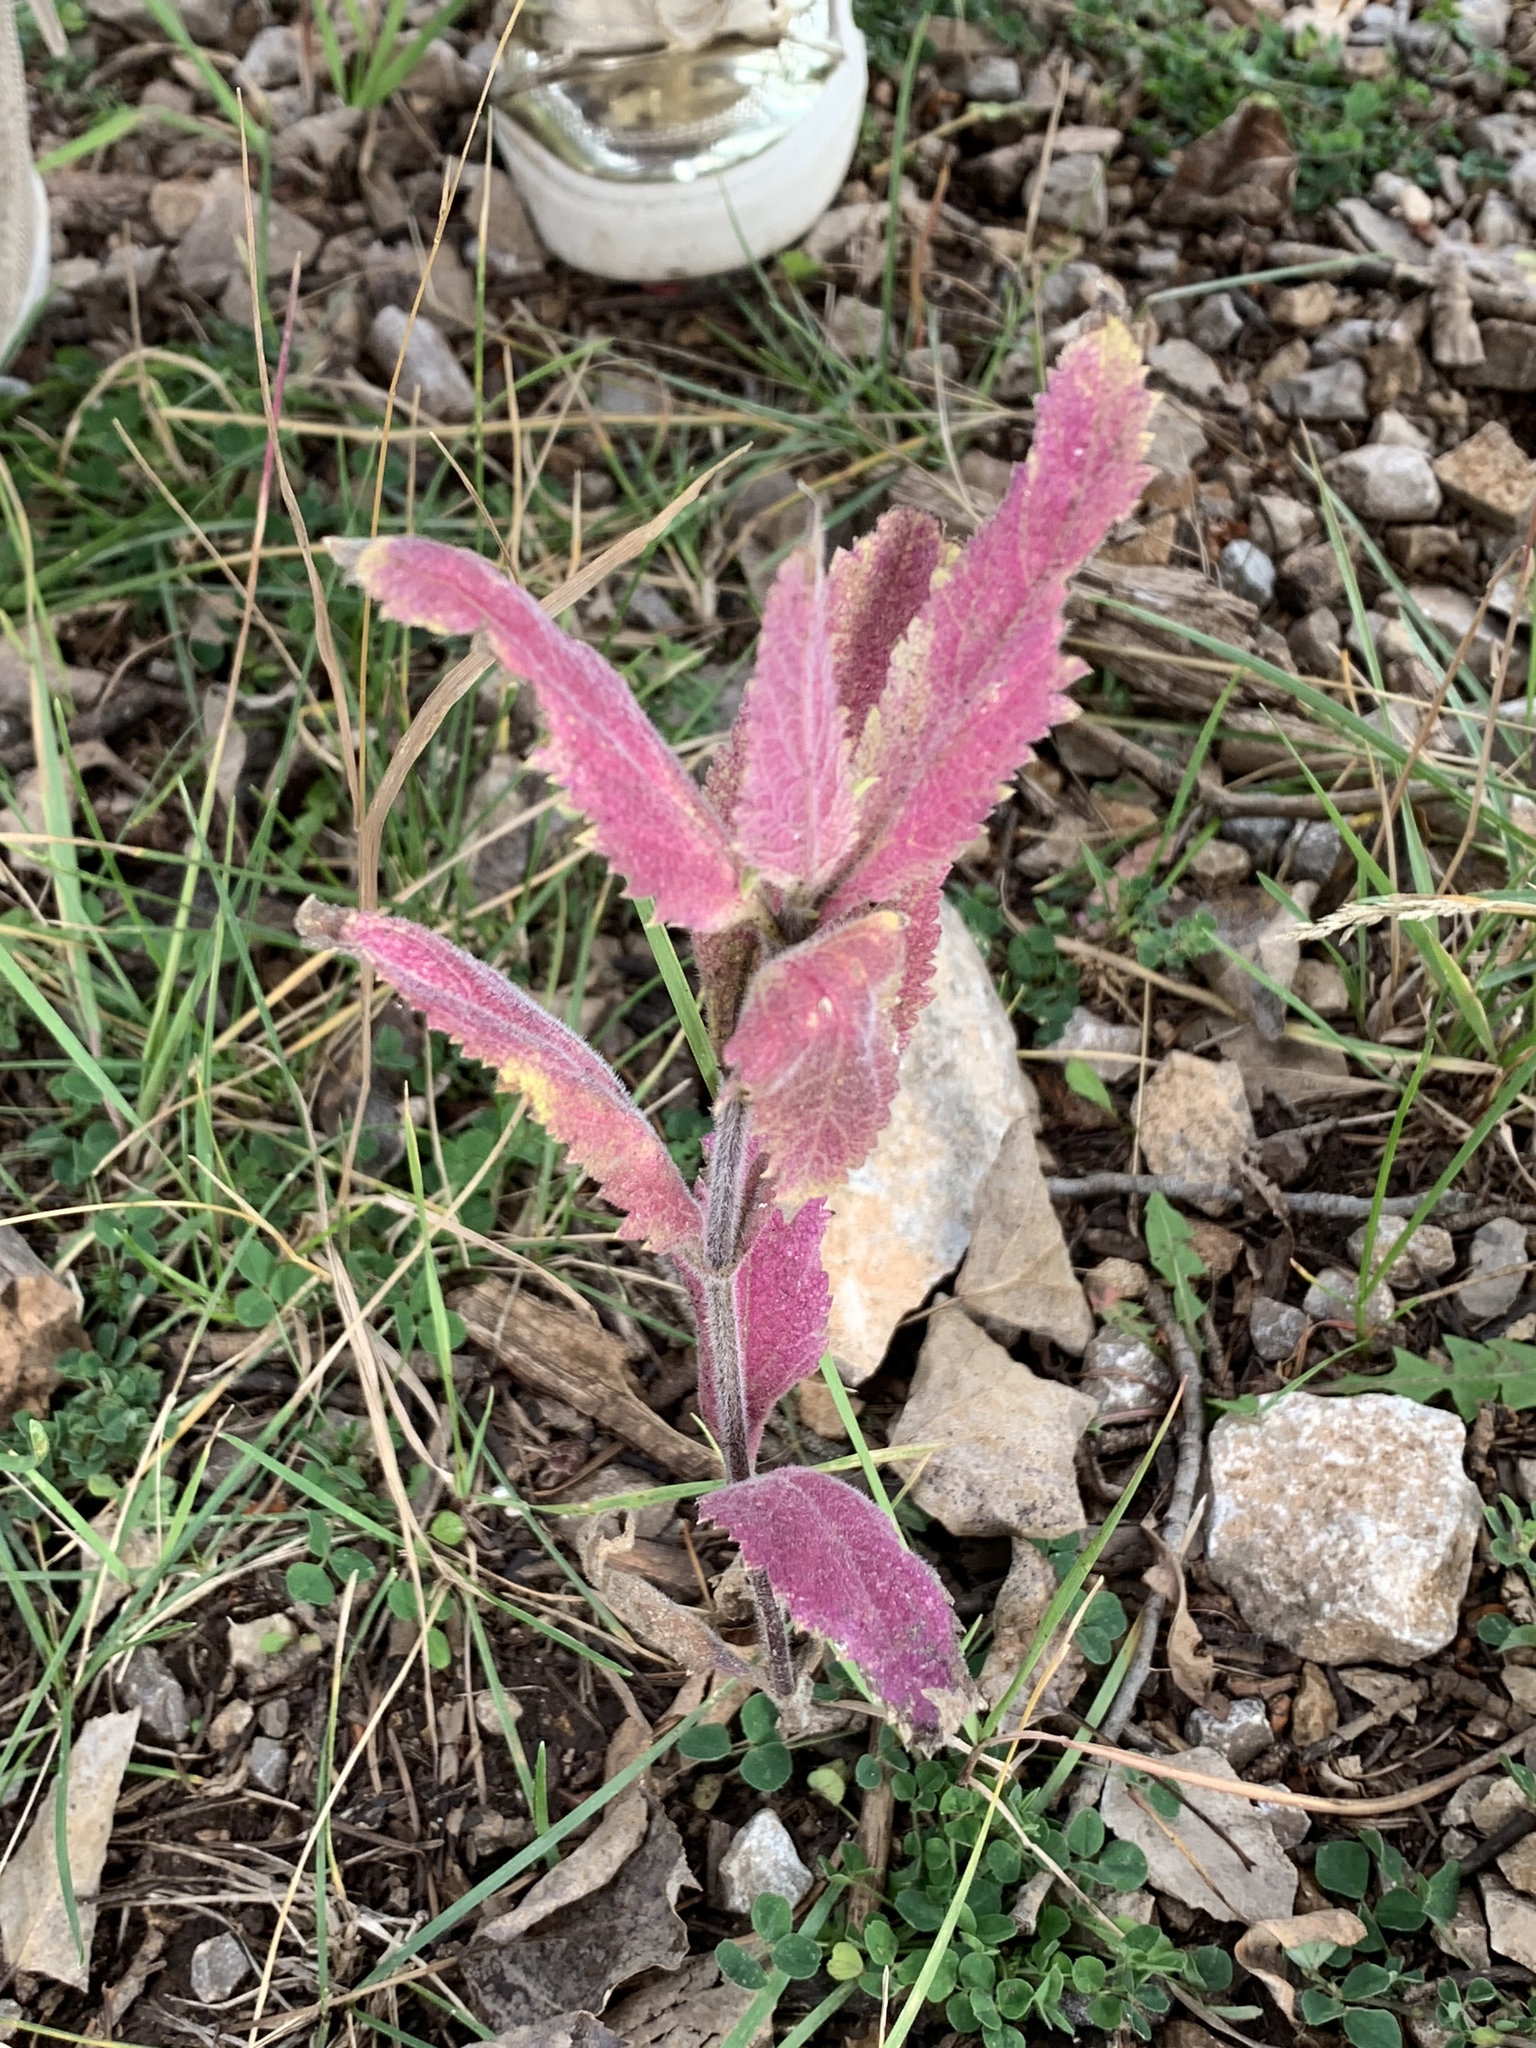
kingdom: Plantae
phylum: Tracheophyta
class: Magnoliopsida
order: Lamiales
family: Verbenaceae
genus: Verbena
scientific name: Verbena macdougalii
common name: New mexico vervain
